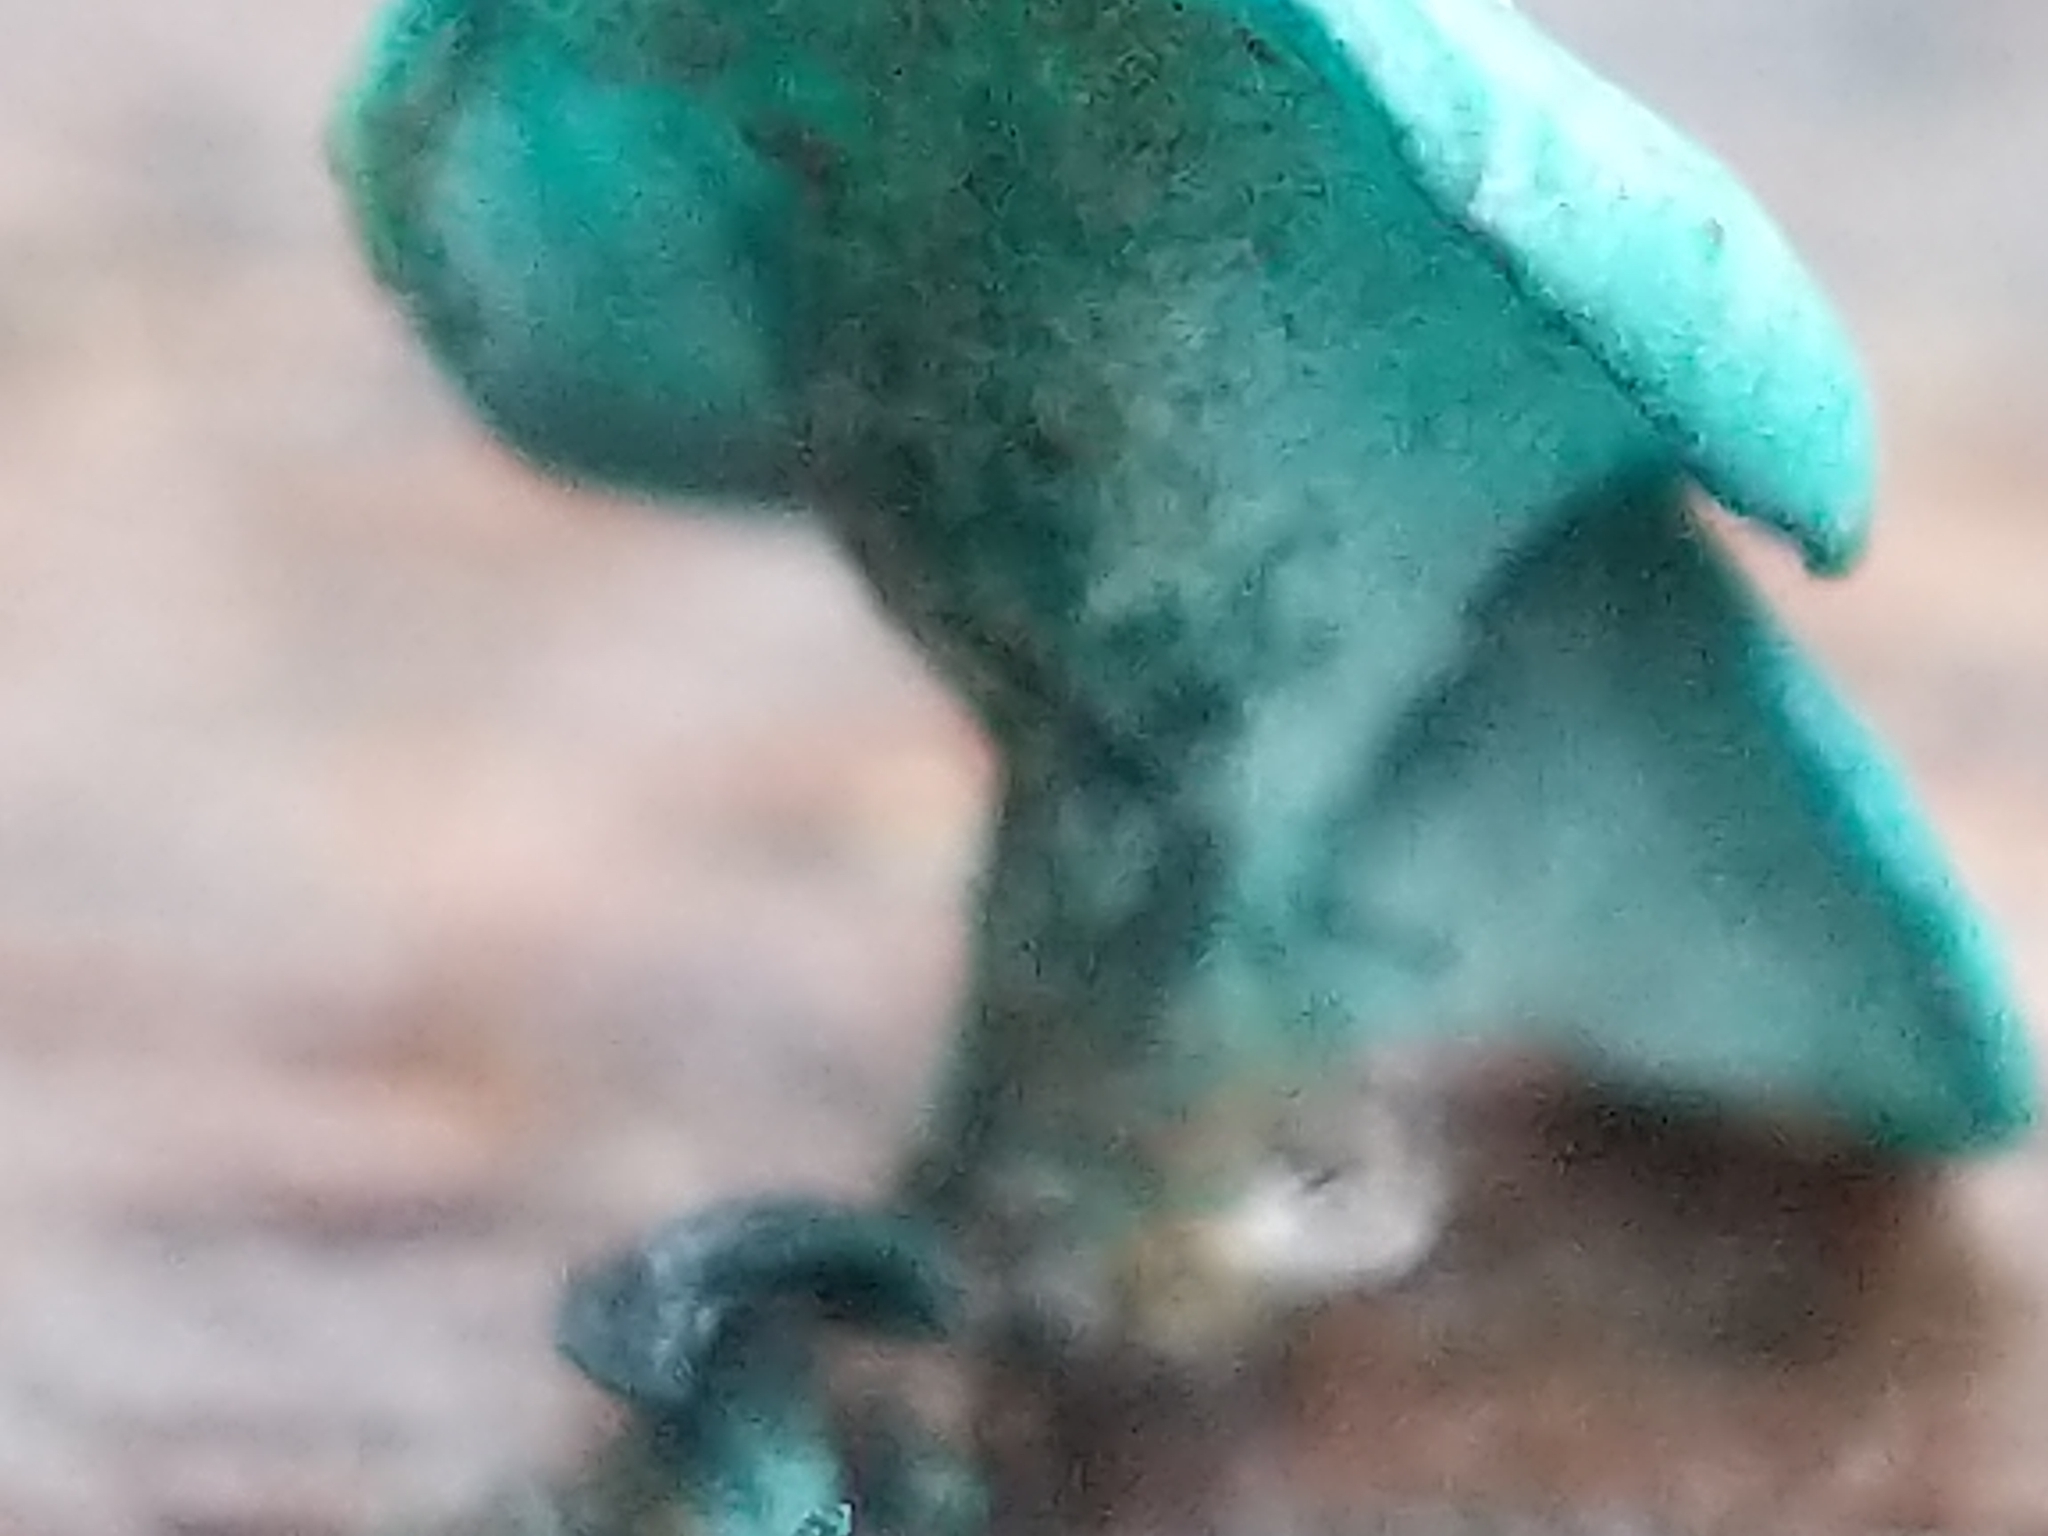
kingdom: Fungi
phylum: Ascomycota
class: Leotiomycetes
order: Helotiales
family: Chlorociboriaceae
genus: Chlorociboria
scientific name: Chlorociboria aeruginascens
